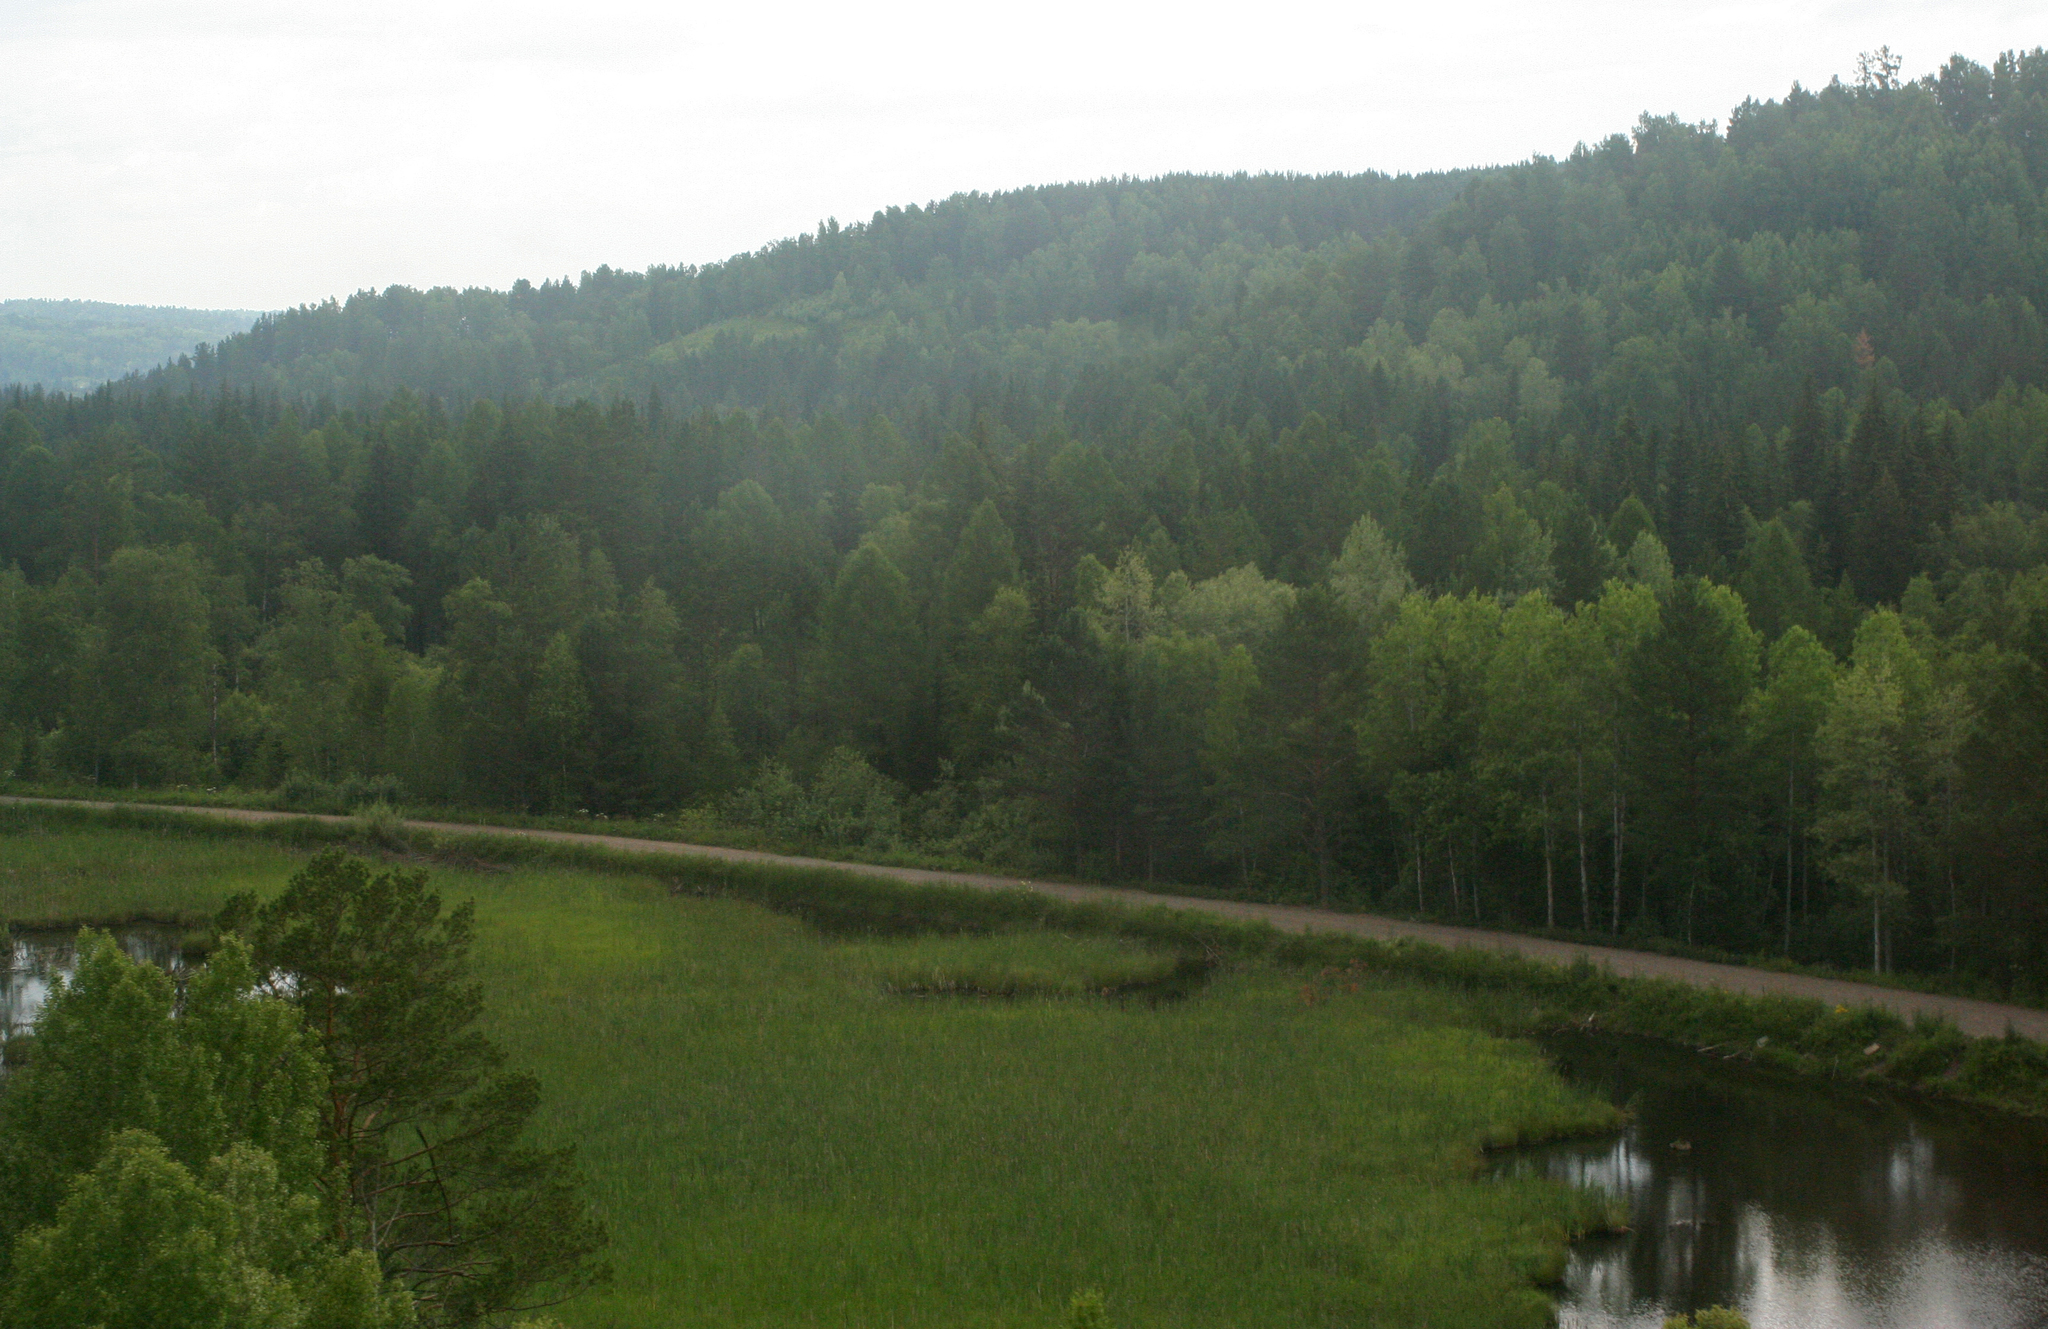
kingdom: Plantae
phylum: Tracheophyta
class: Pinopsida
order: Pinales
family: Pinaceae
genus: Pinus
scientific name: Pinus sylvestris
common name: Scots pine
